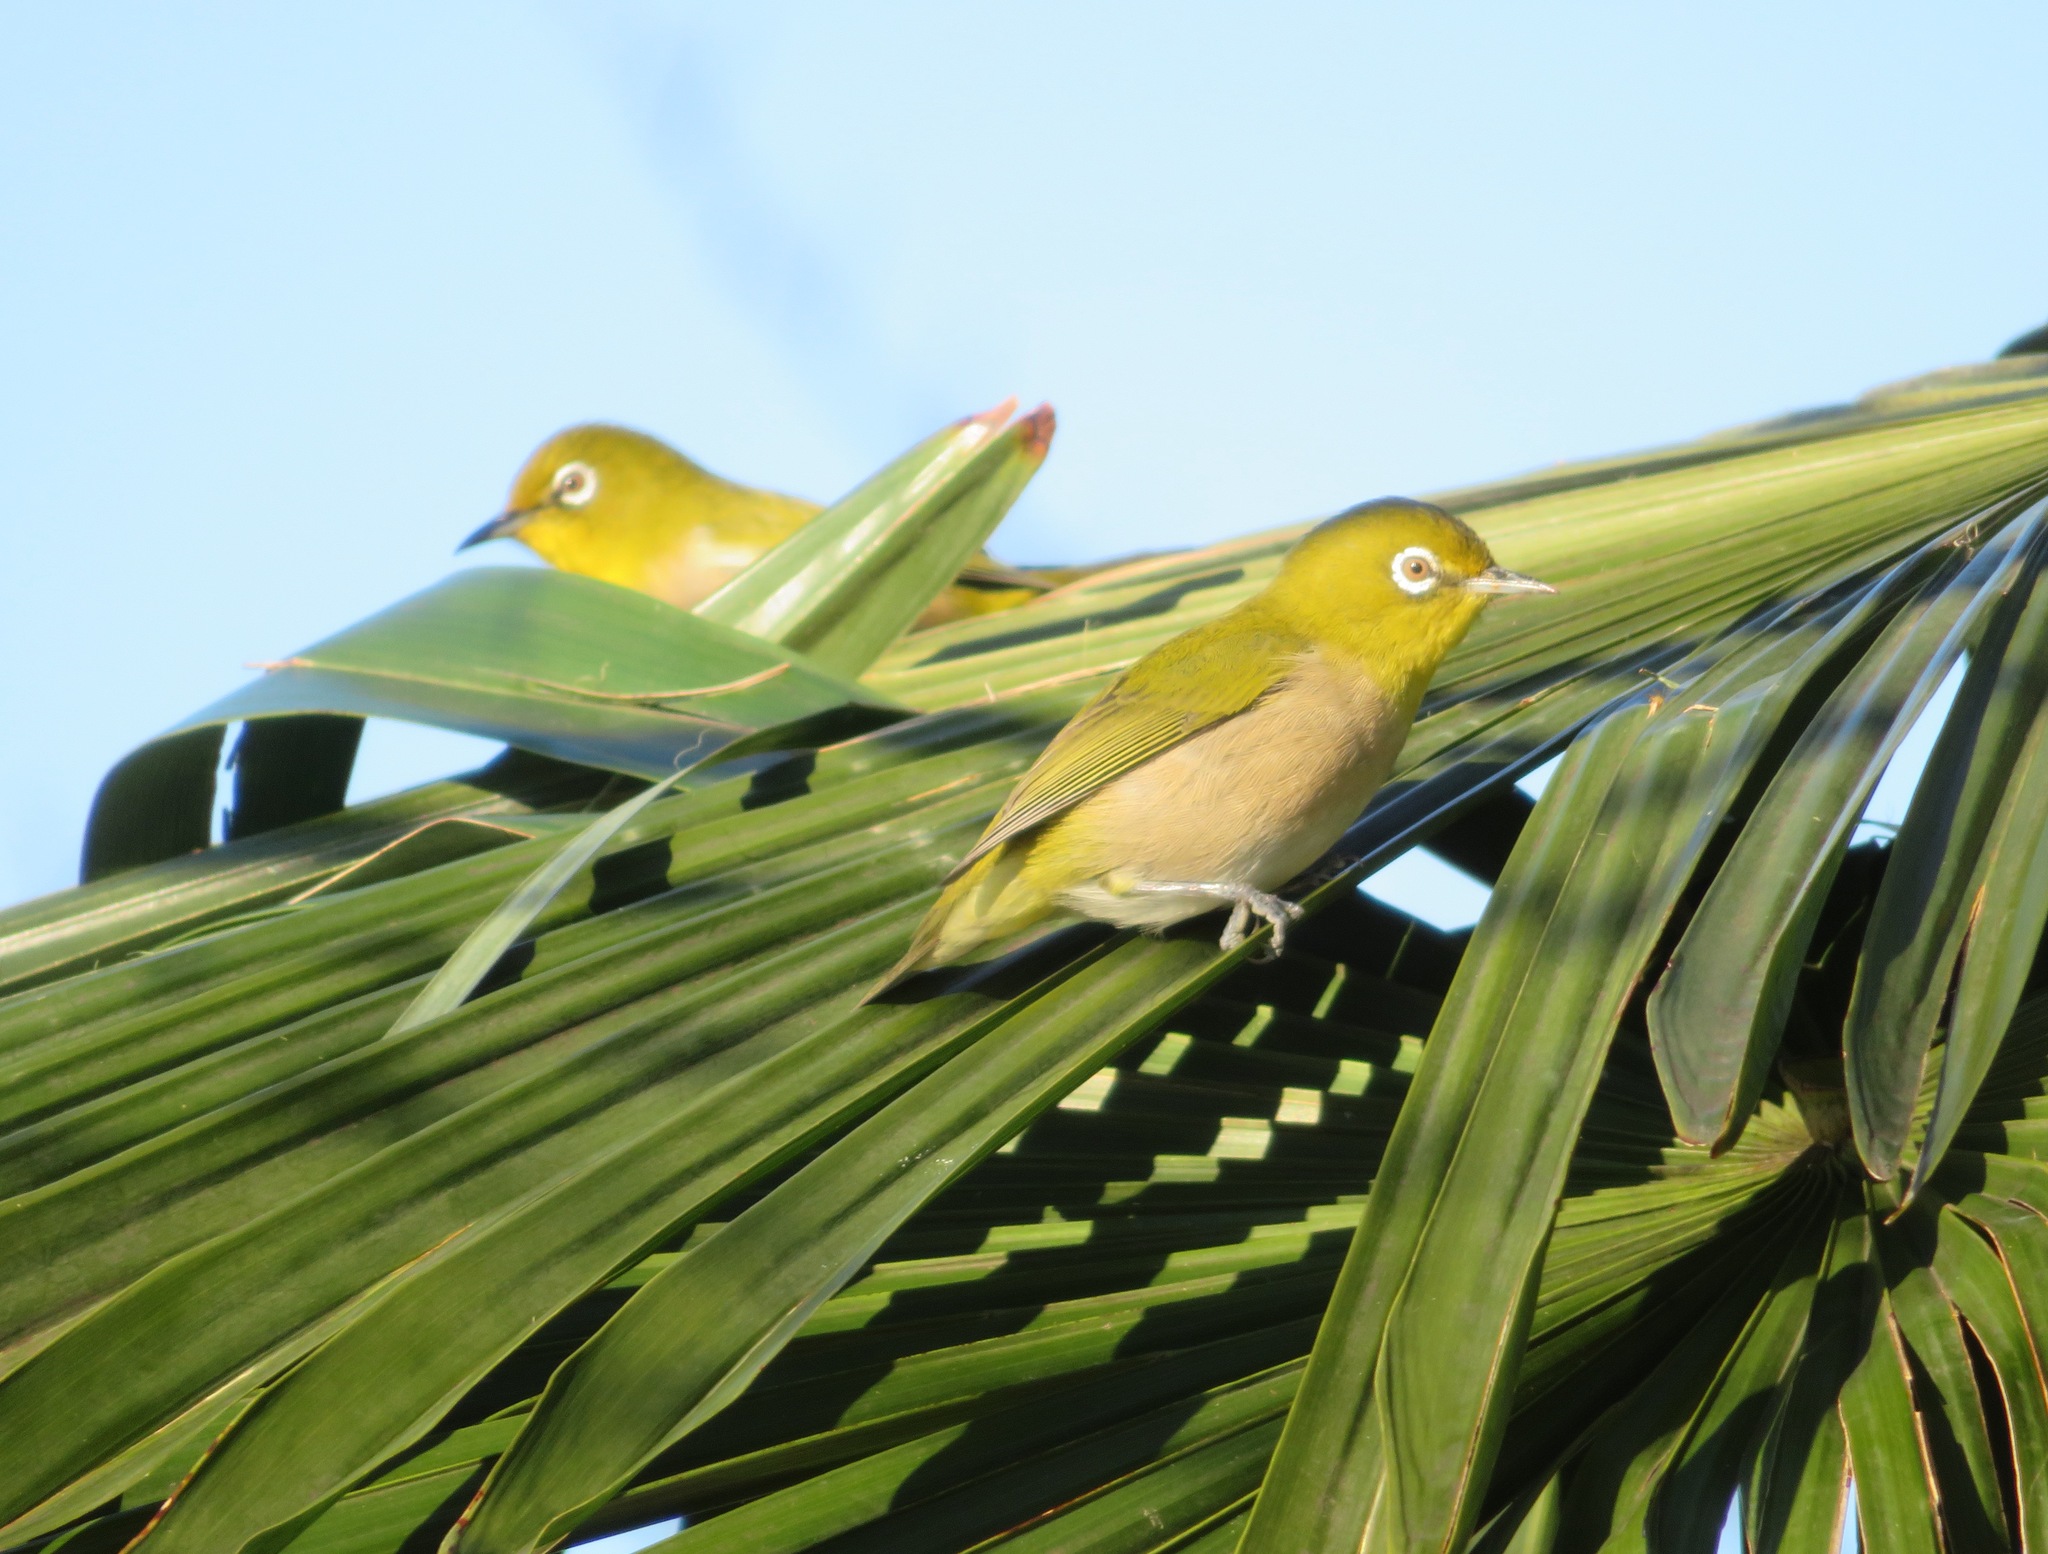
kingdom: Animalia
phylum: Chordata
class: Aves
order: Passeriformes
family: Zosteropidae
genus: Zosterops
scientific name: Zosterops japonicus
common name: Japanese white-eye
